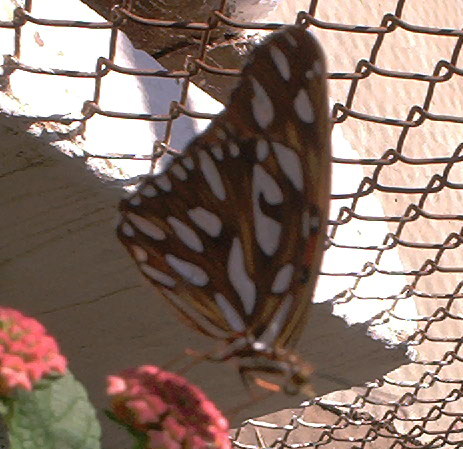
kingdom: Animalia
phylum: Arthropoda
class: Insecta
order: Lepidoptera
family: Nymphalidae
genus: Dione
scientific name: Dione vanillae
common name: Gulf fritillary
